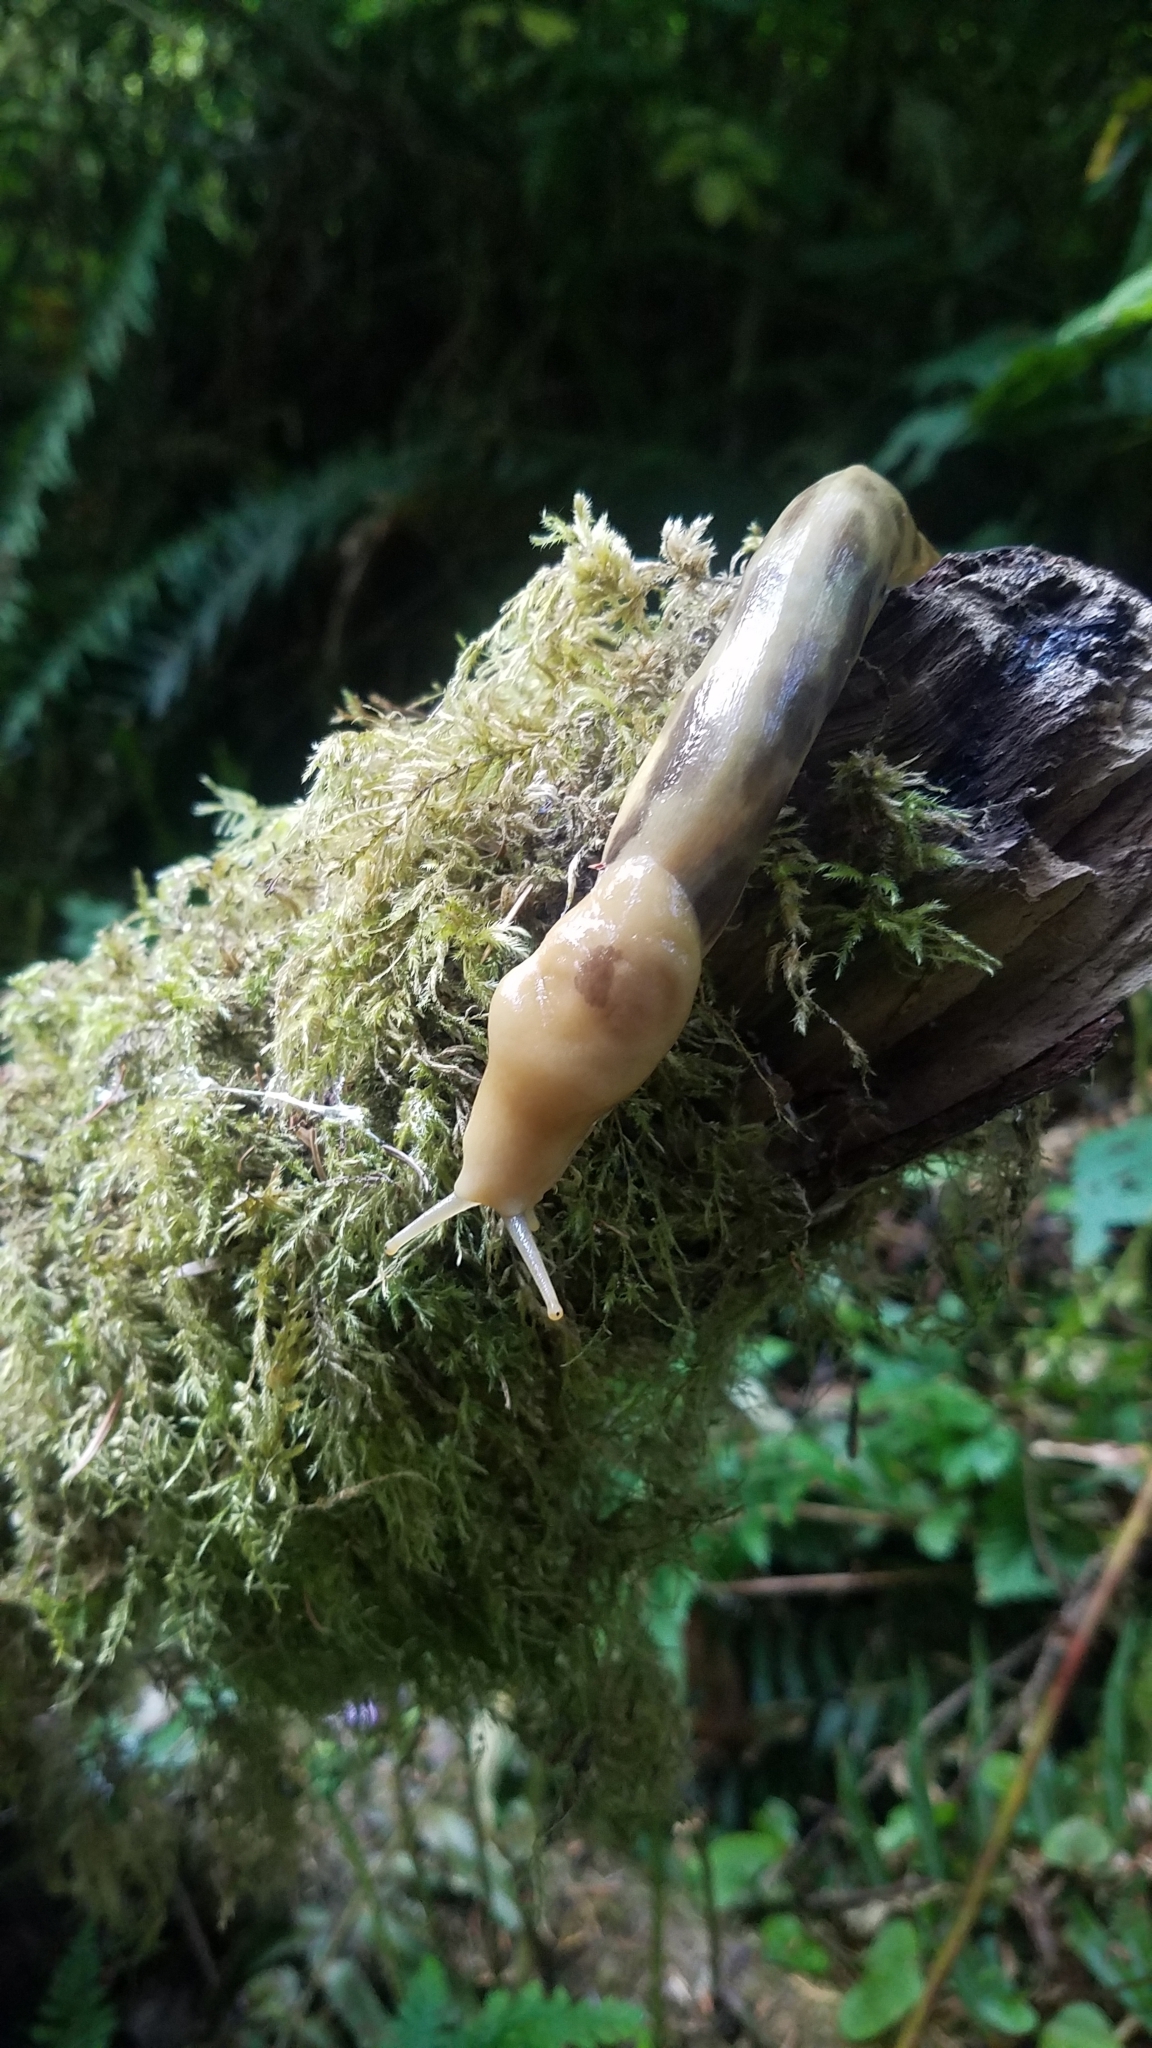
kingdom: Animalia
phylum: Mollusca
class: Gastropoda
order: Stylommatophora
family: Ariolimacidae
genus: Ariolimax
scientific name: Ariolimax columbianus
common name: Pacific banana slug
